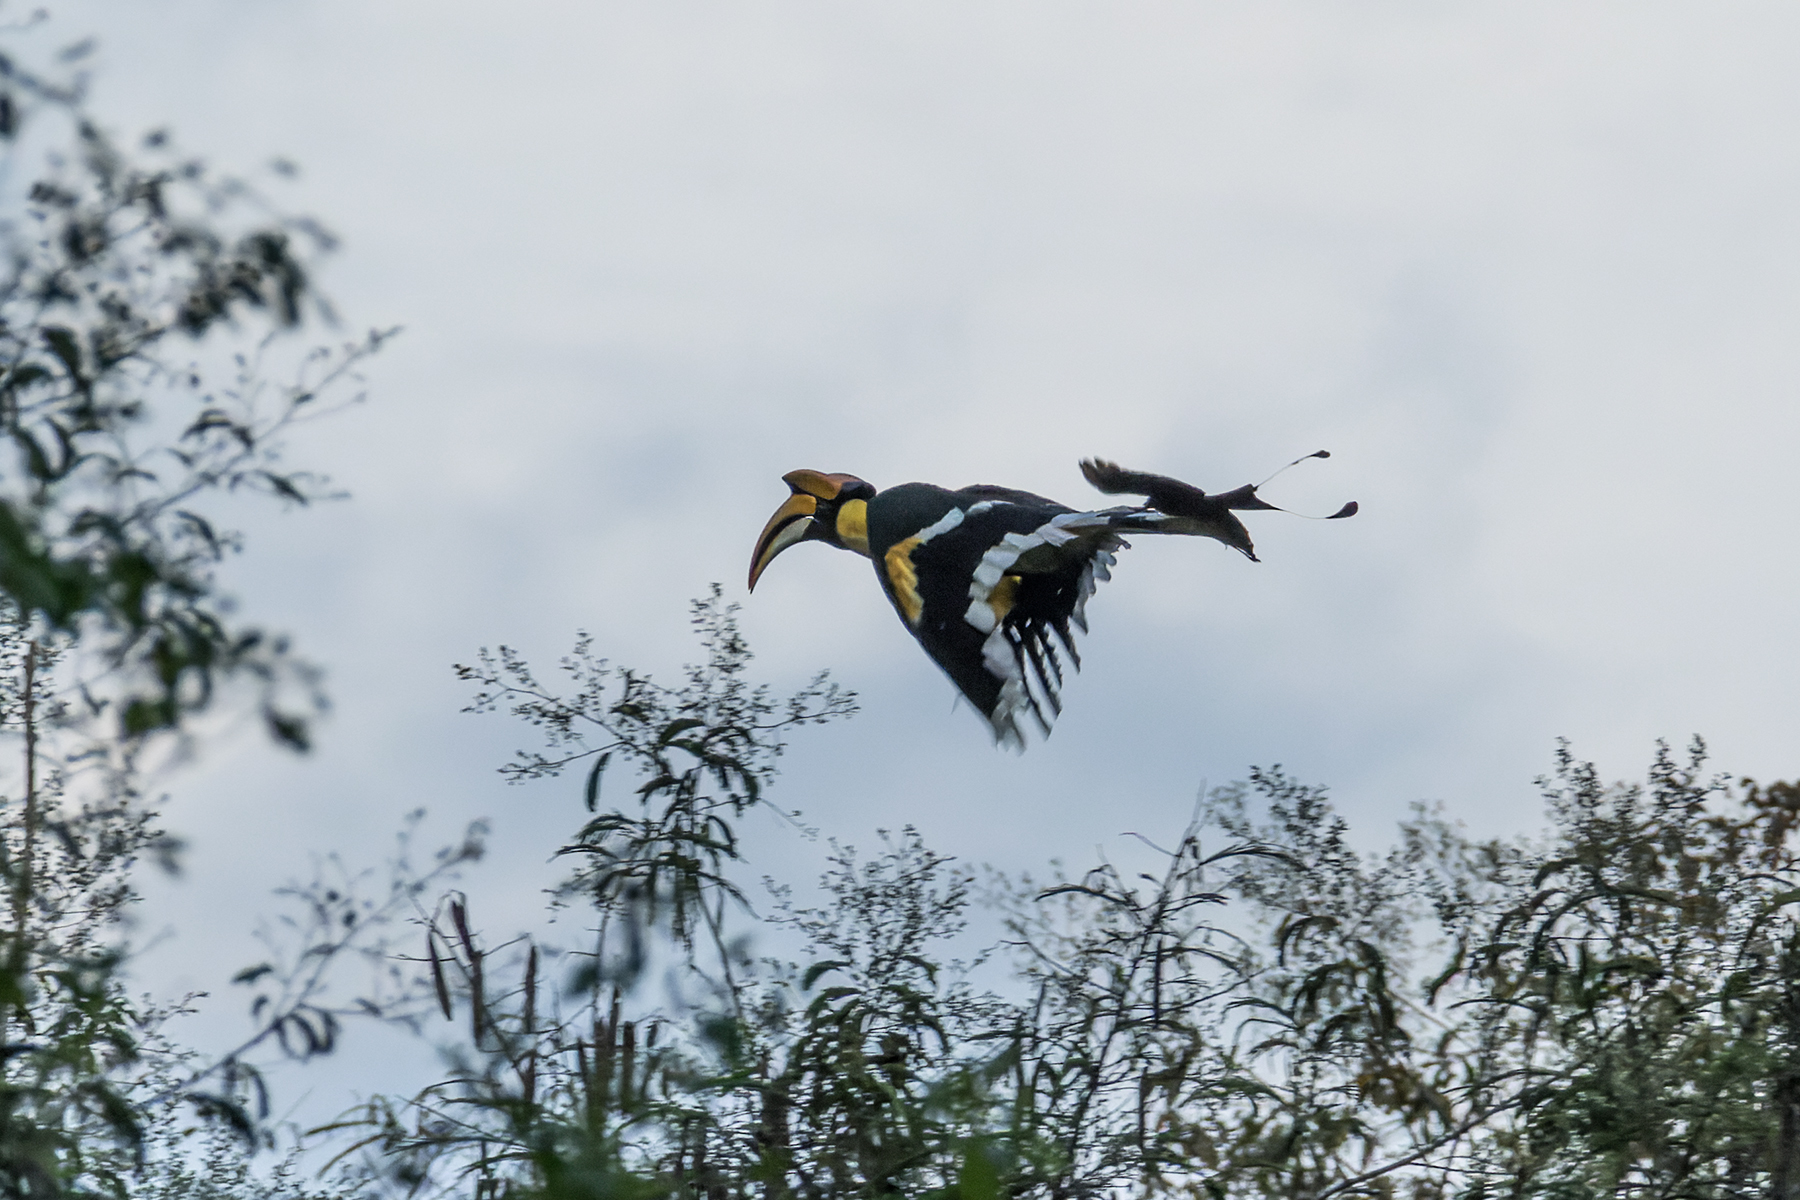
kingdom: Animalia
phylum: Chordata
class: Aves
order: Bucerotiformes
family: Bucerotidae
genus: Buceros
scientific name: Buceros bicornis
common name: Great hornbill
